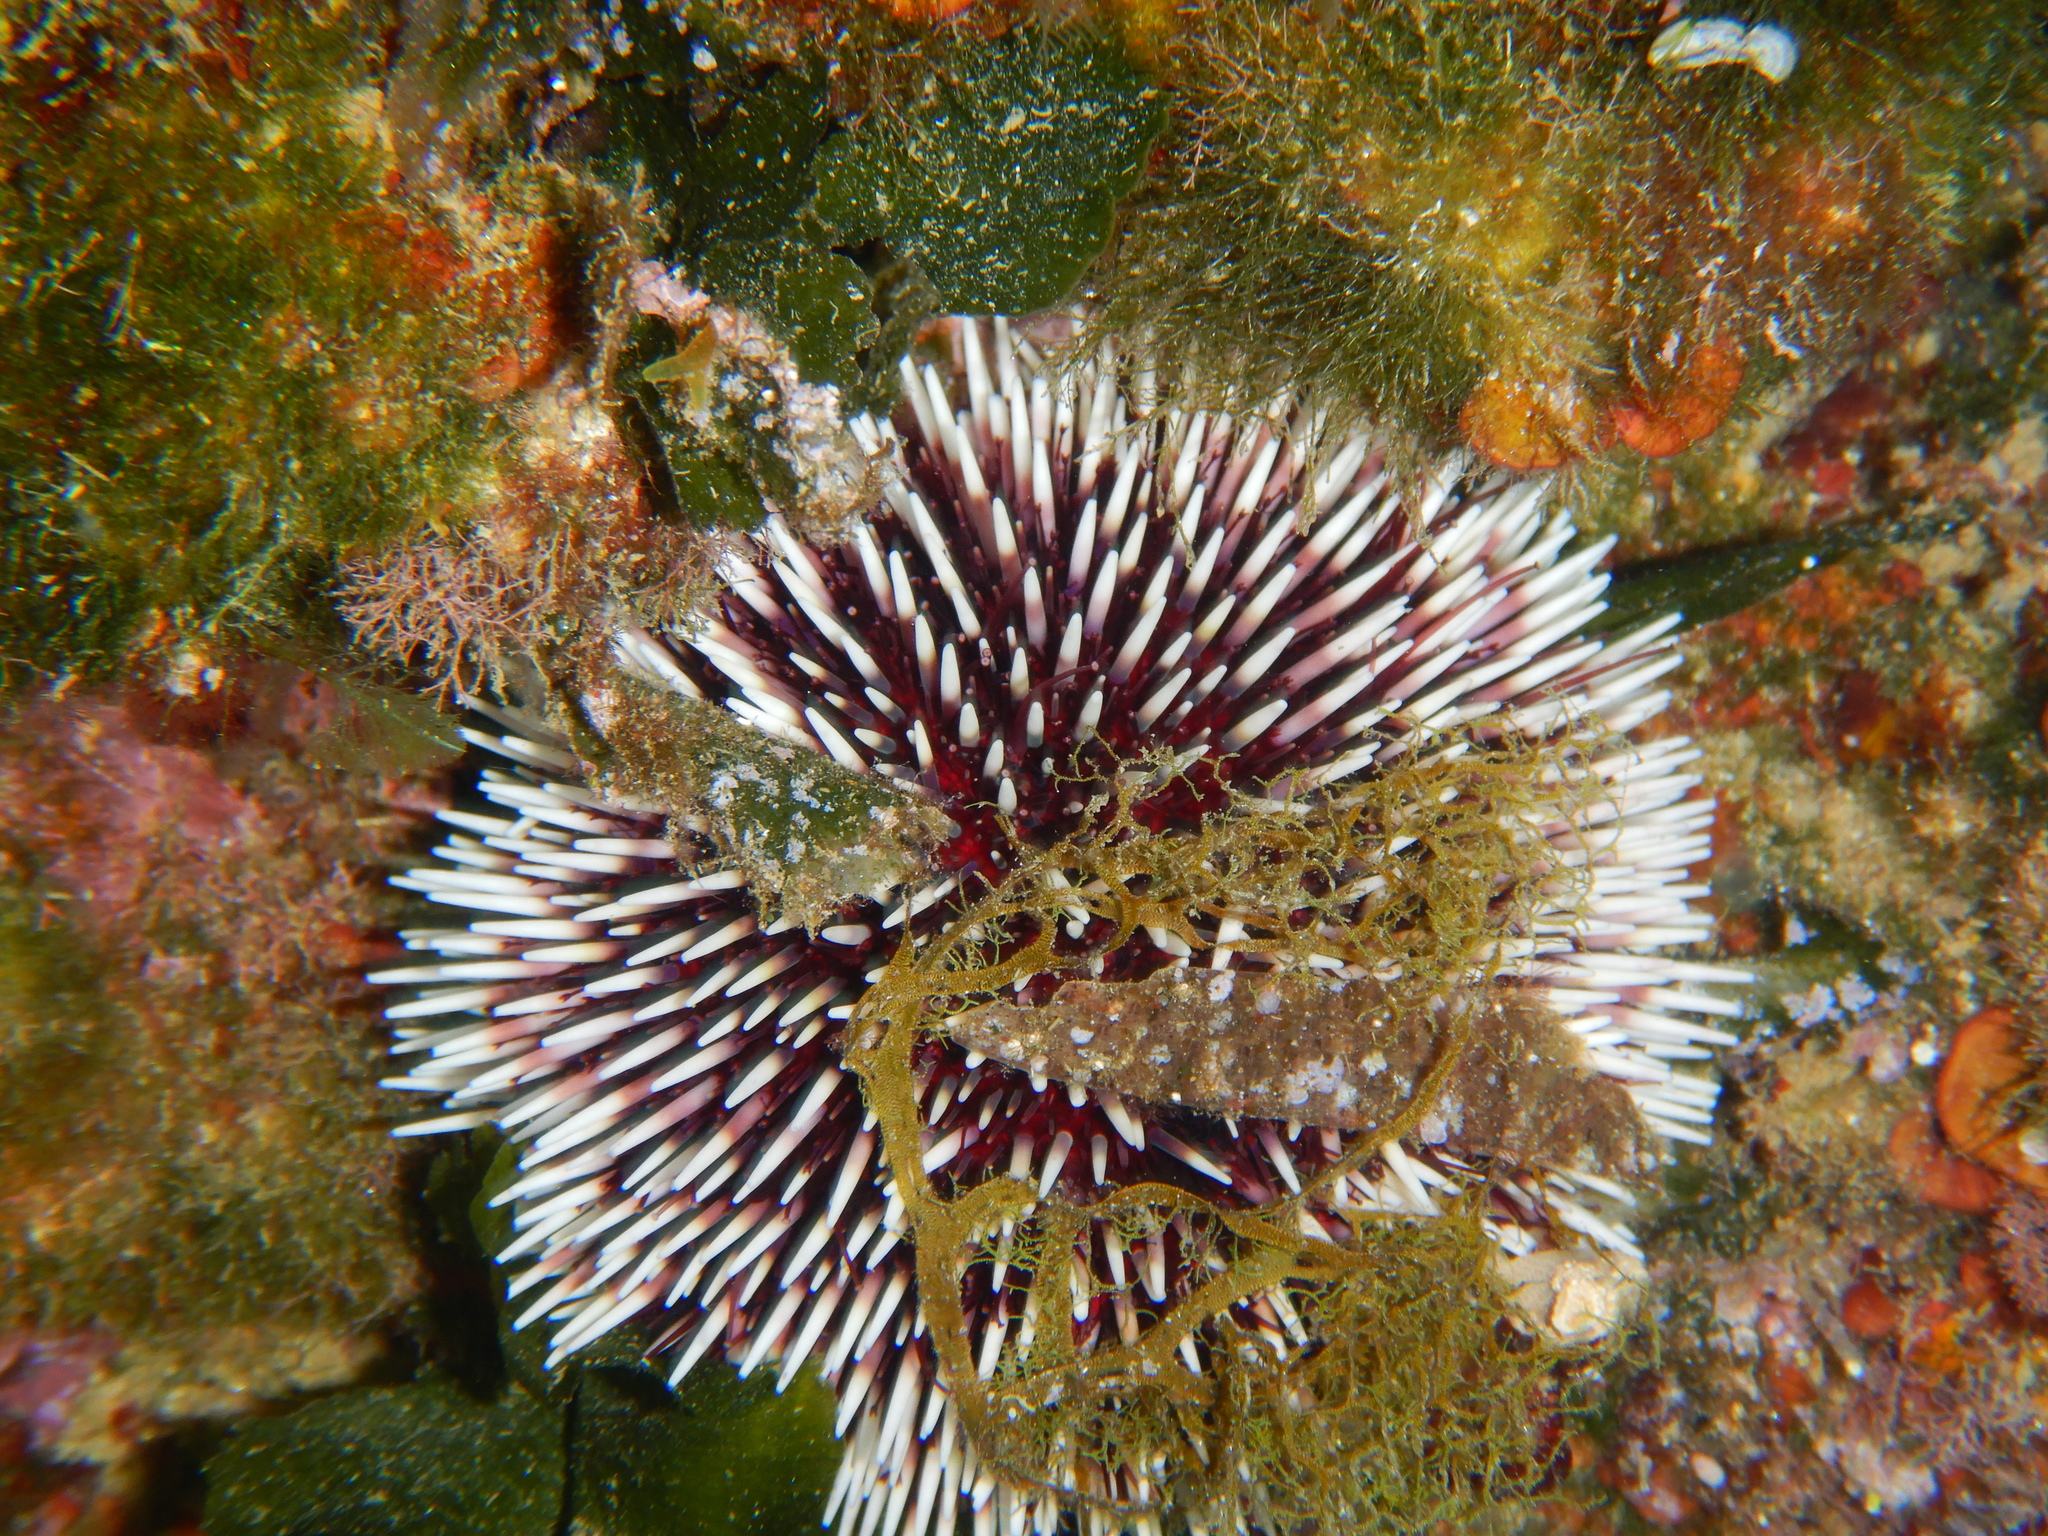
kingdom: Animalia
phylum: Echinodermata
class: Echinoidea
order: Camarodonta
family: Toxopneustidae
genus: Sphaerechinus
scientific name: Sphaerechinus granularis
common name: Violet sea urchin
